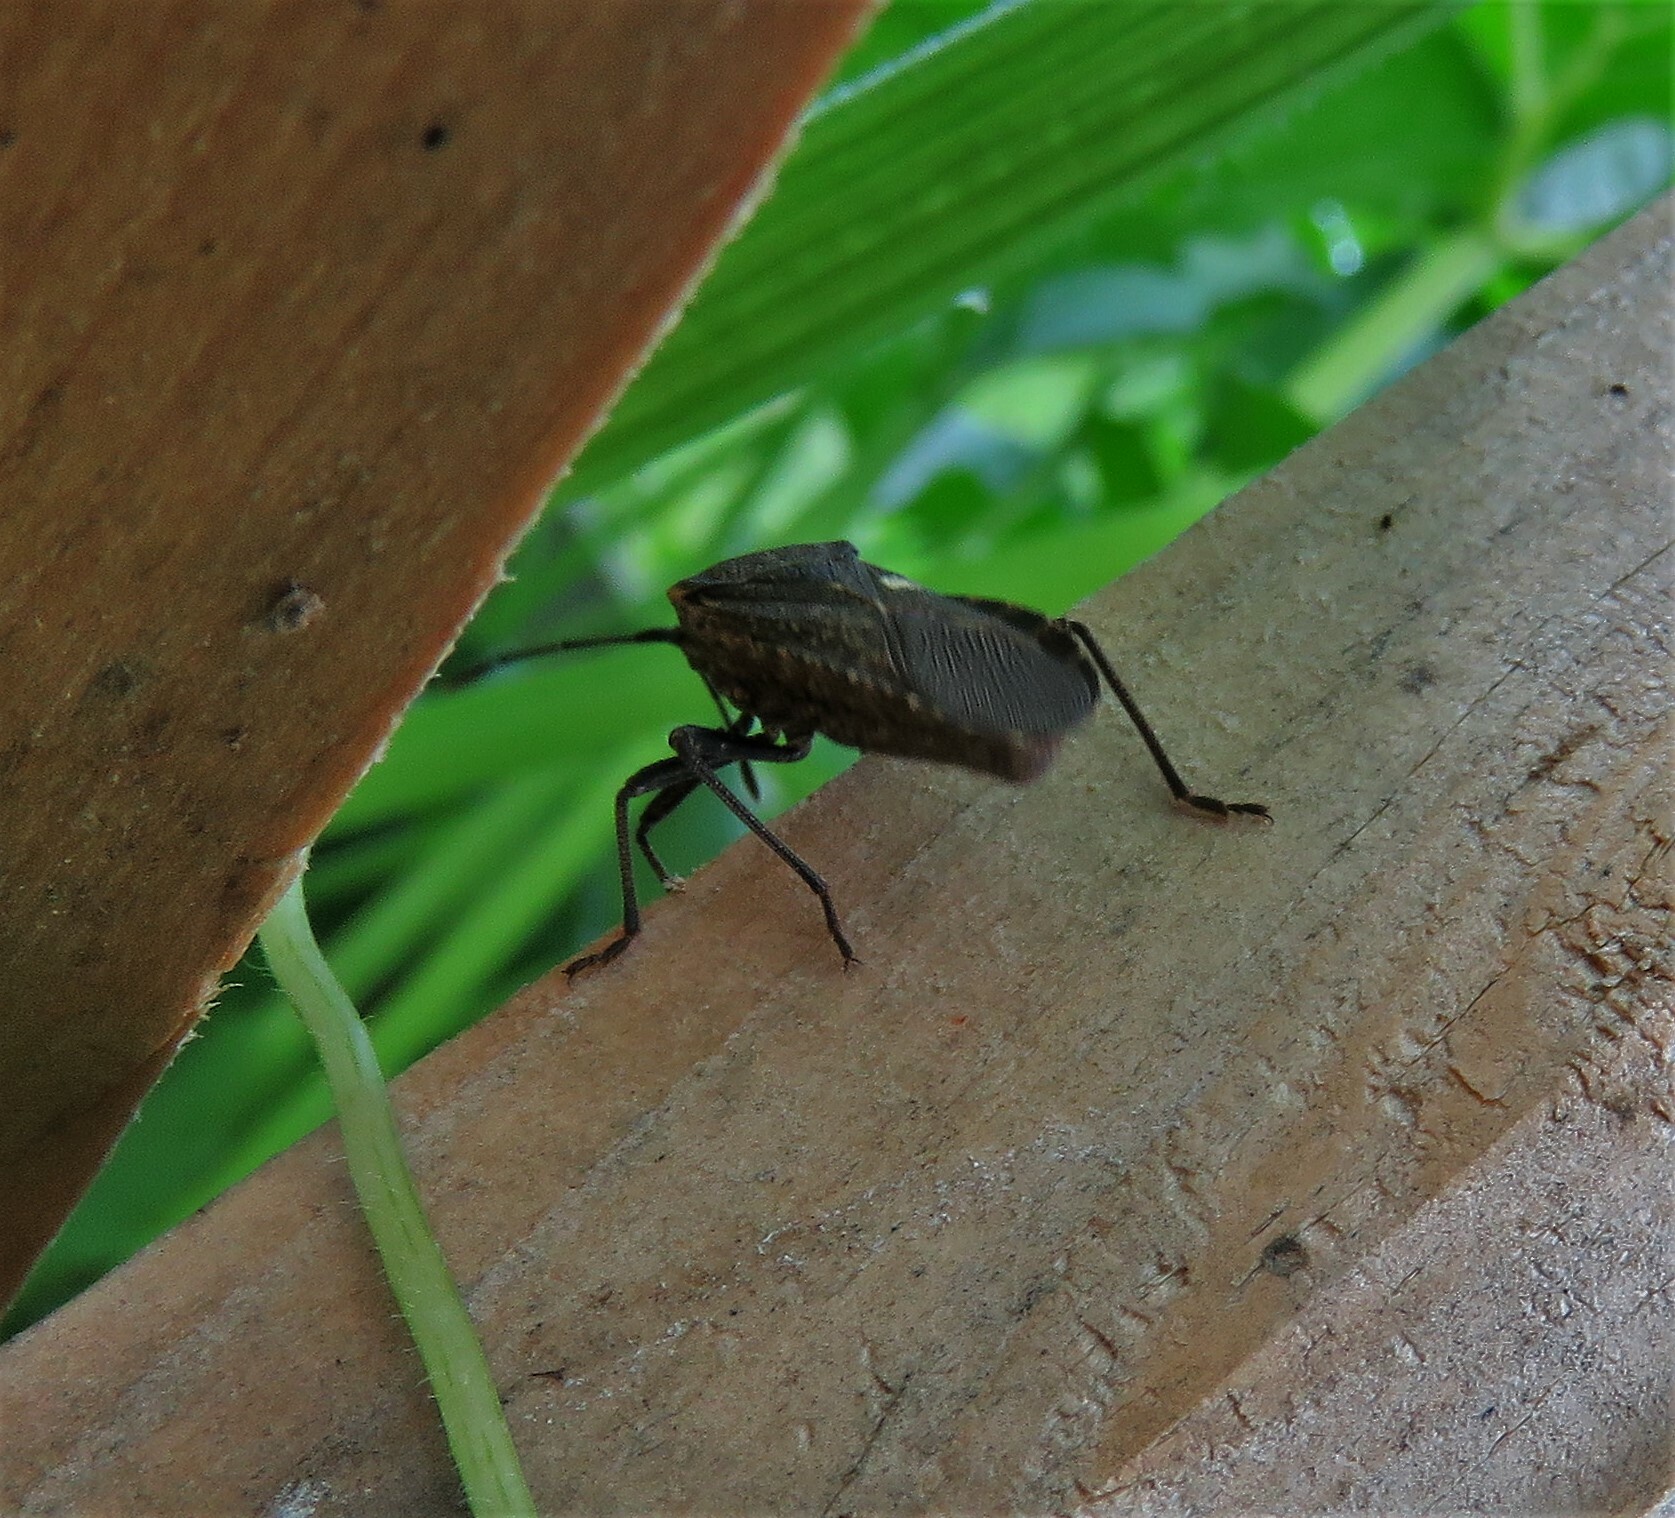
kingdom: Animalia
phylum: Arthropoda
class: Insecta
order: Hemiptera
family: Coreidae
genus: Anasa
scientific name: Anasa tristis
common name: Squash bug
